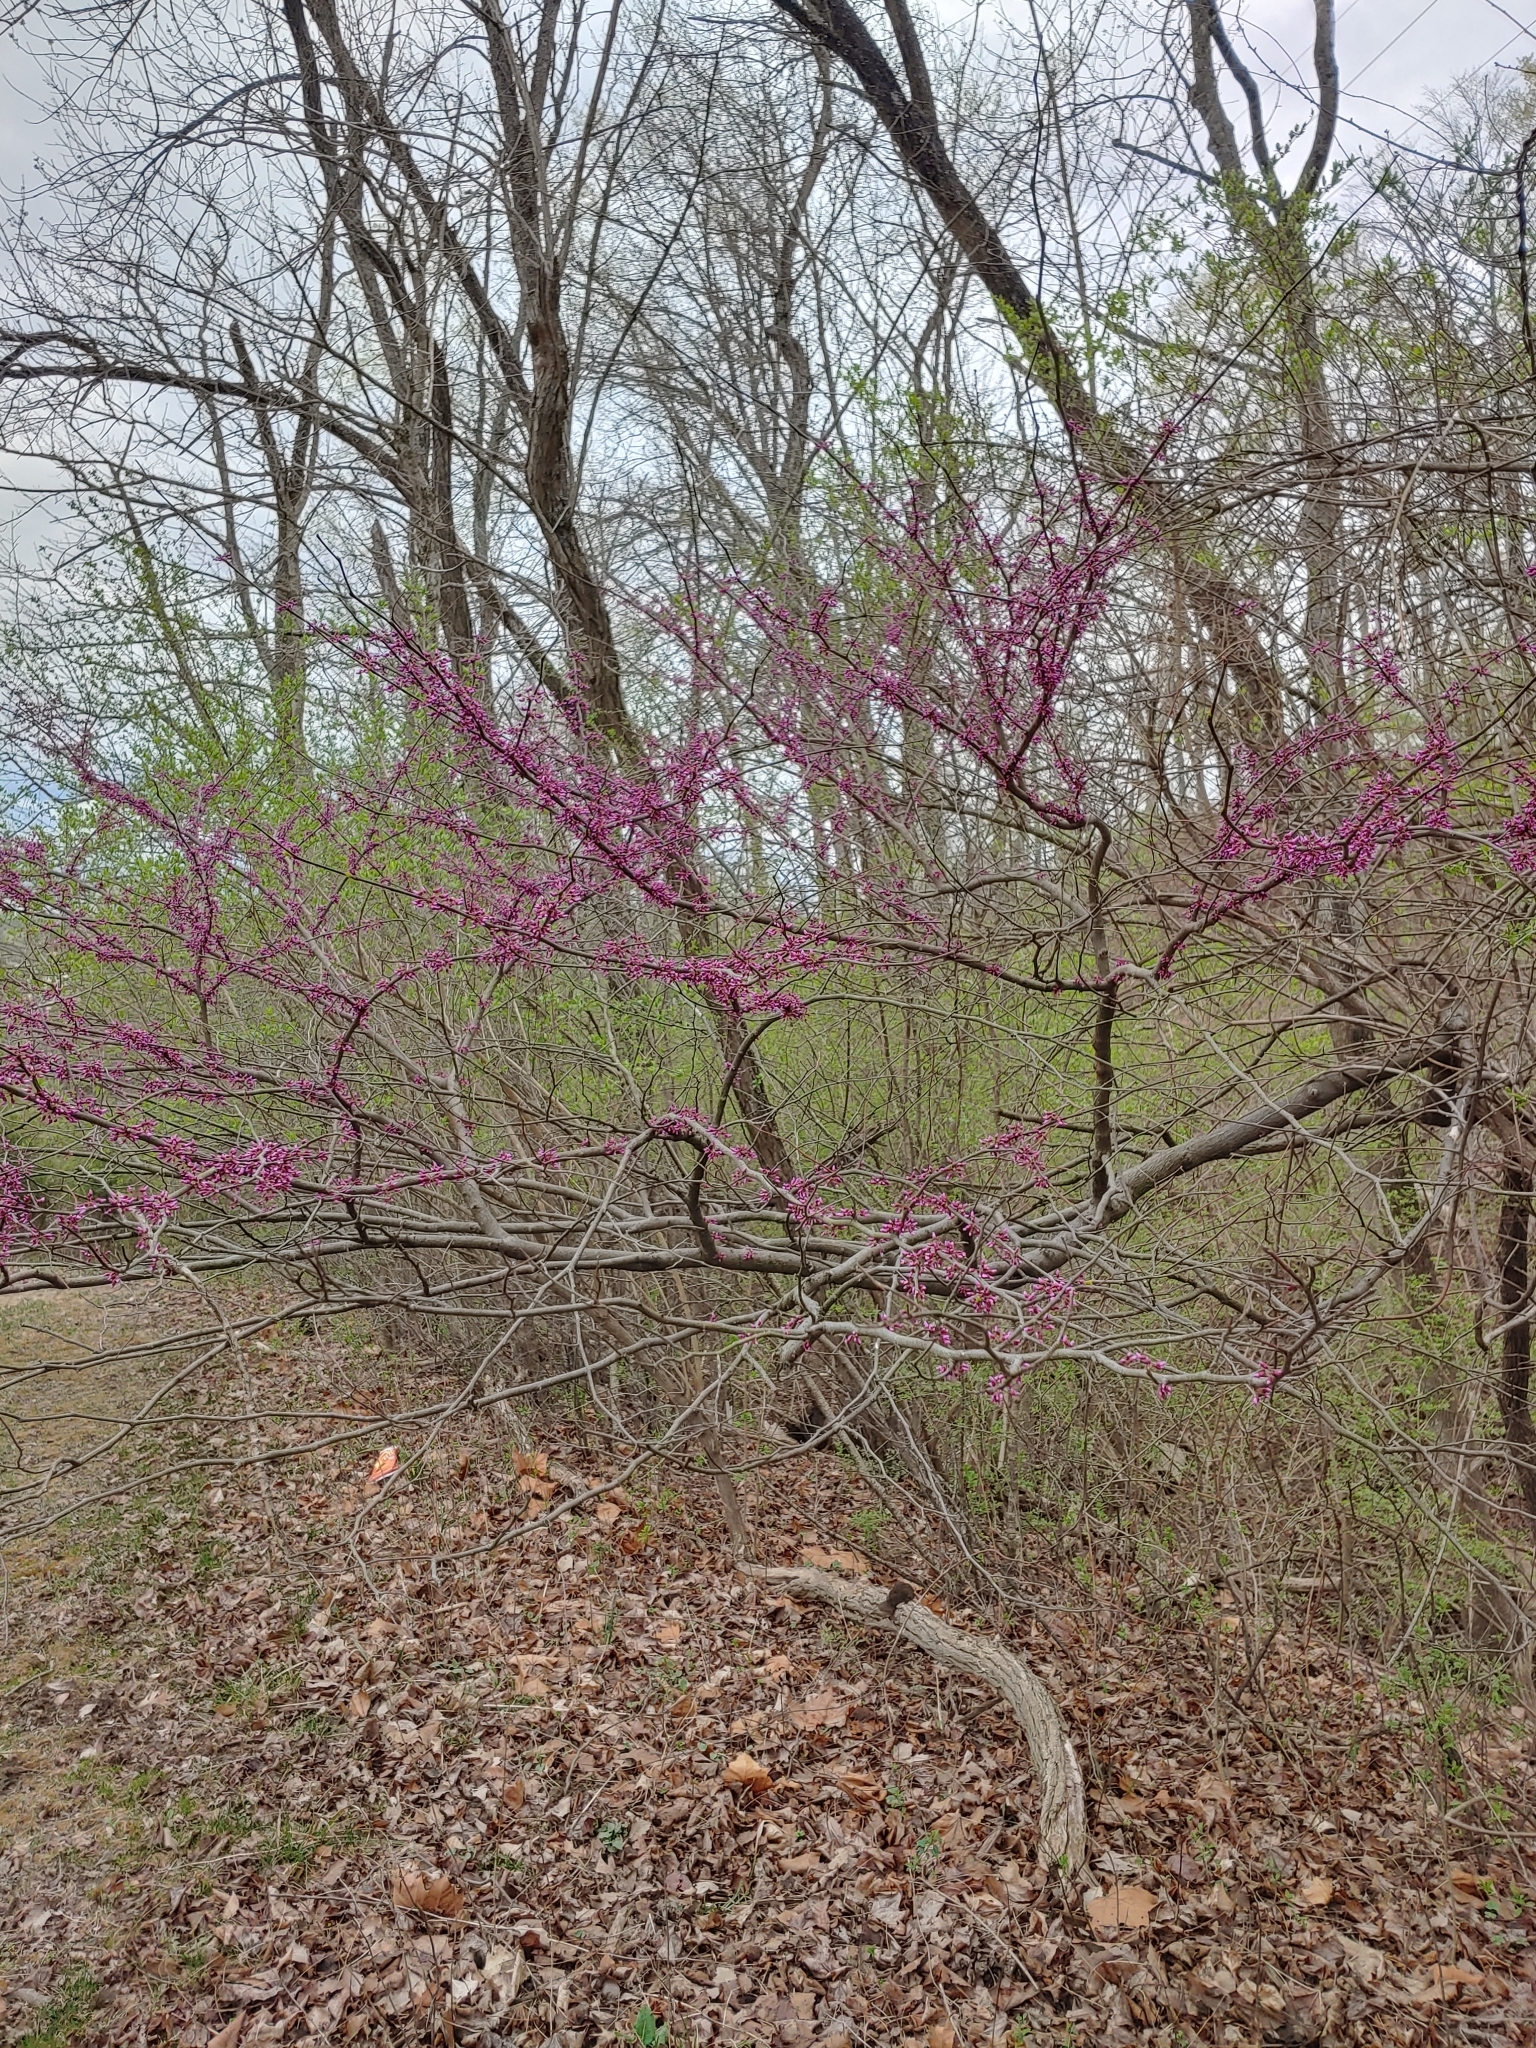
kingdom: Plantae
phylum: Tracheophyta
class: Magnoliopsida
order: Fabales
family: Fabaceae
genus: Cercis
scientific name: Cercis canadensis
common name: Eastern redbud
